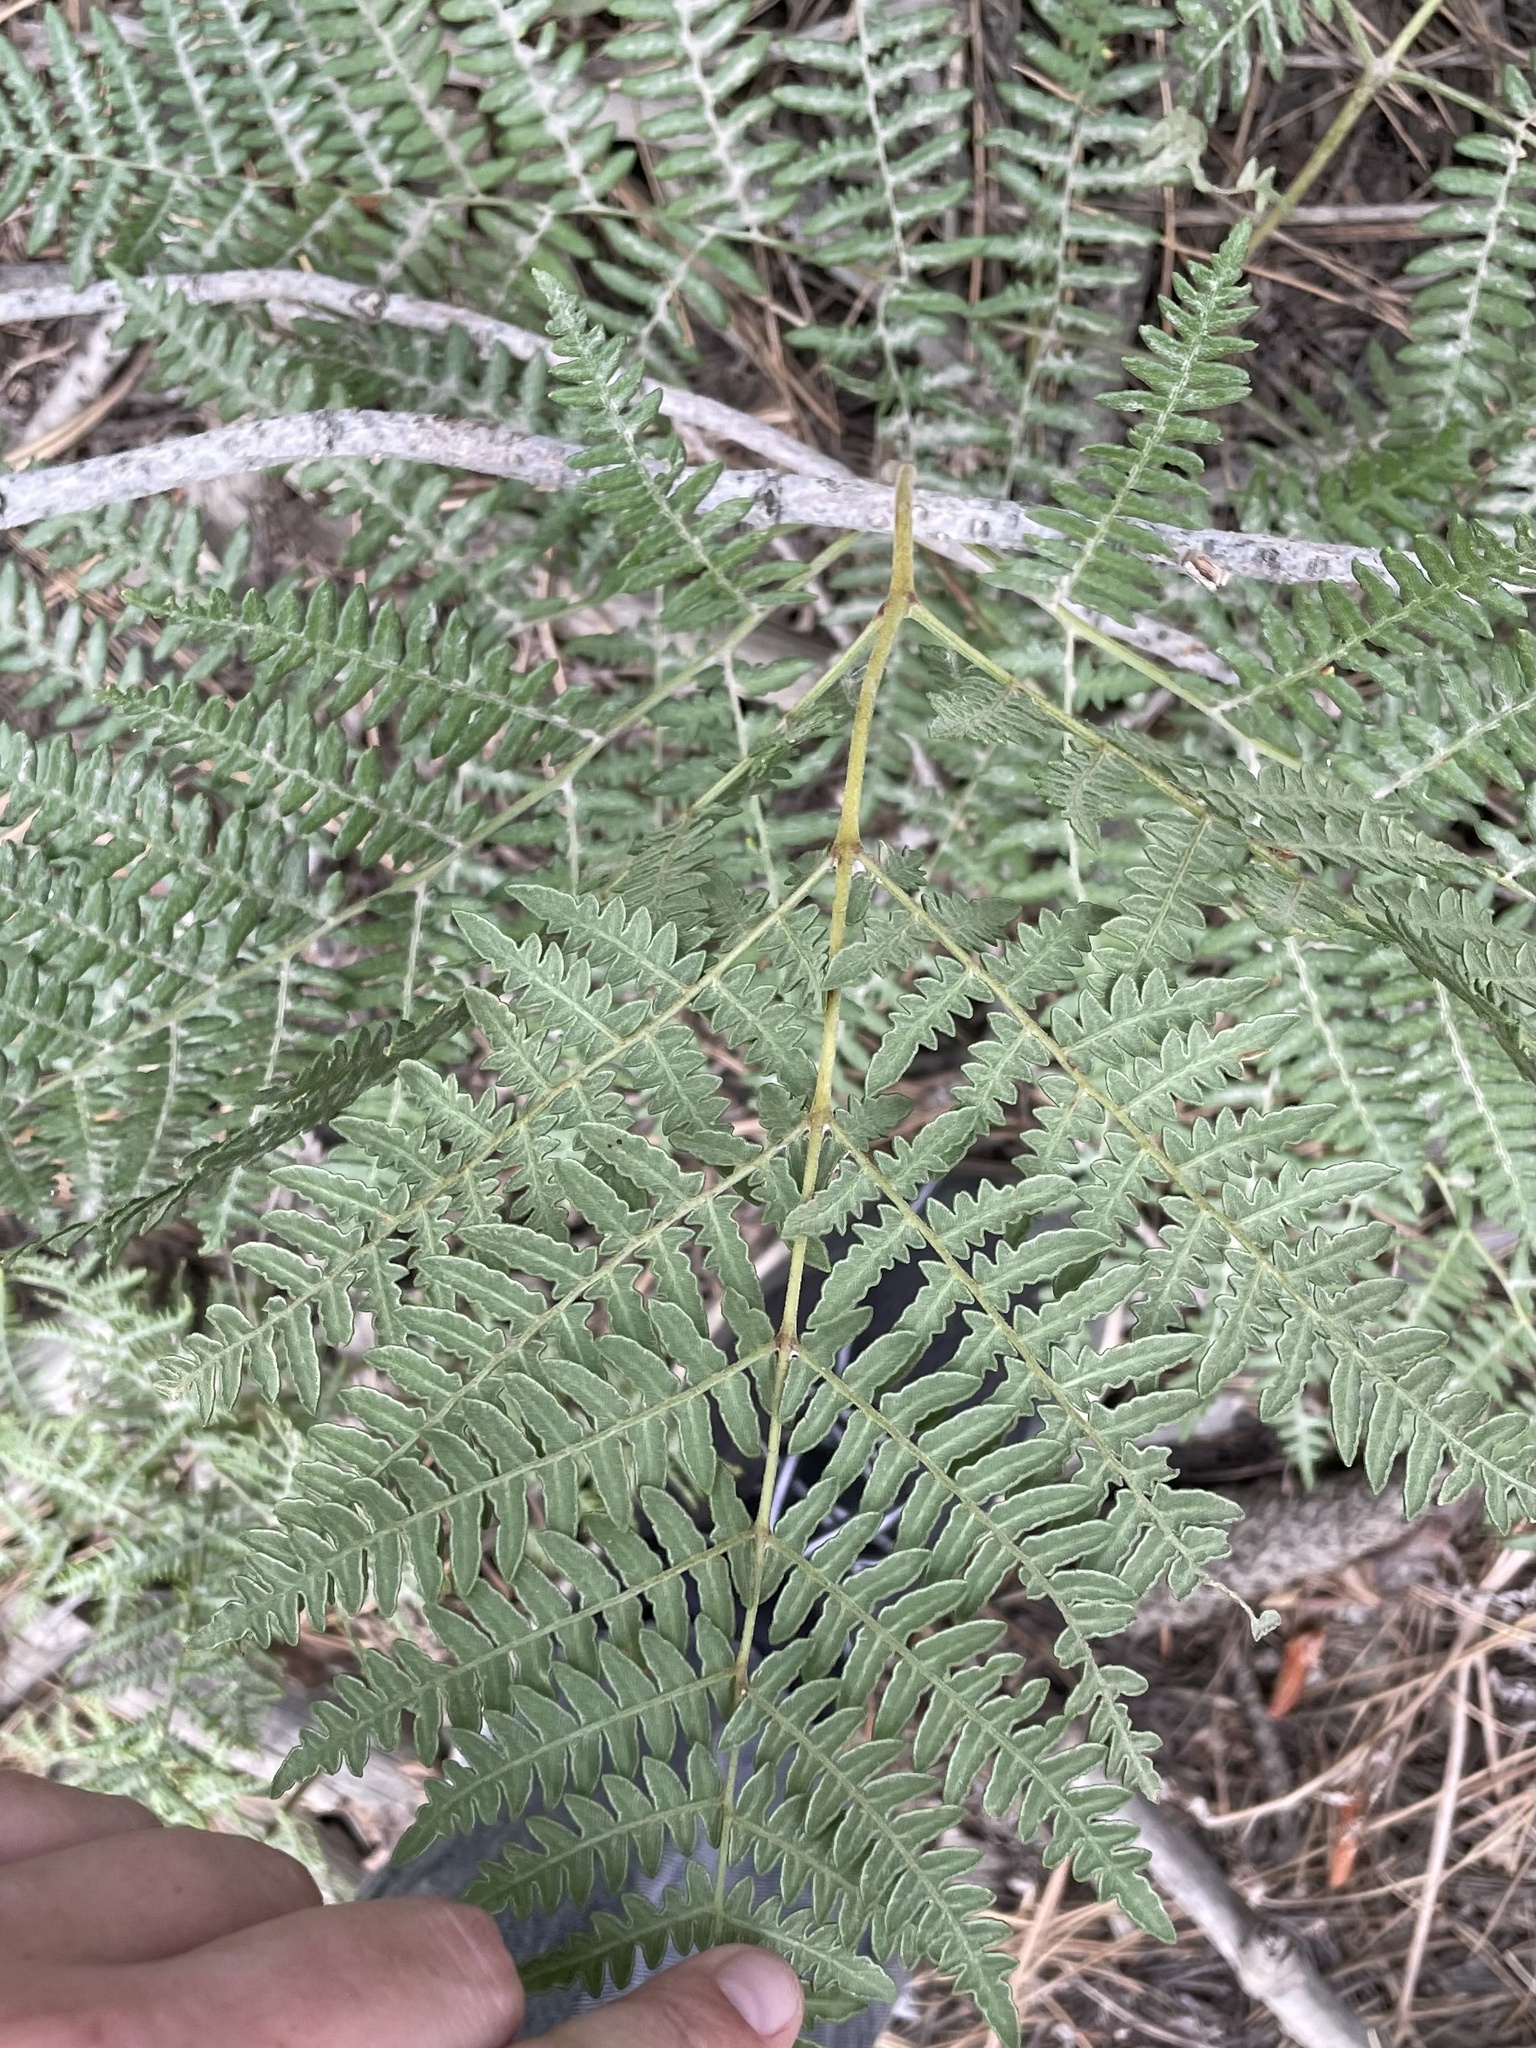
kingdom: Plantae
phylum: Tracheophyta
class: Polypodiopsida
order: Polypodiales
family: Dennstaedtiaceae
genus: Pteridium
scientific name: Pteridium aquilinum
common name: Bracken
